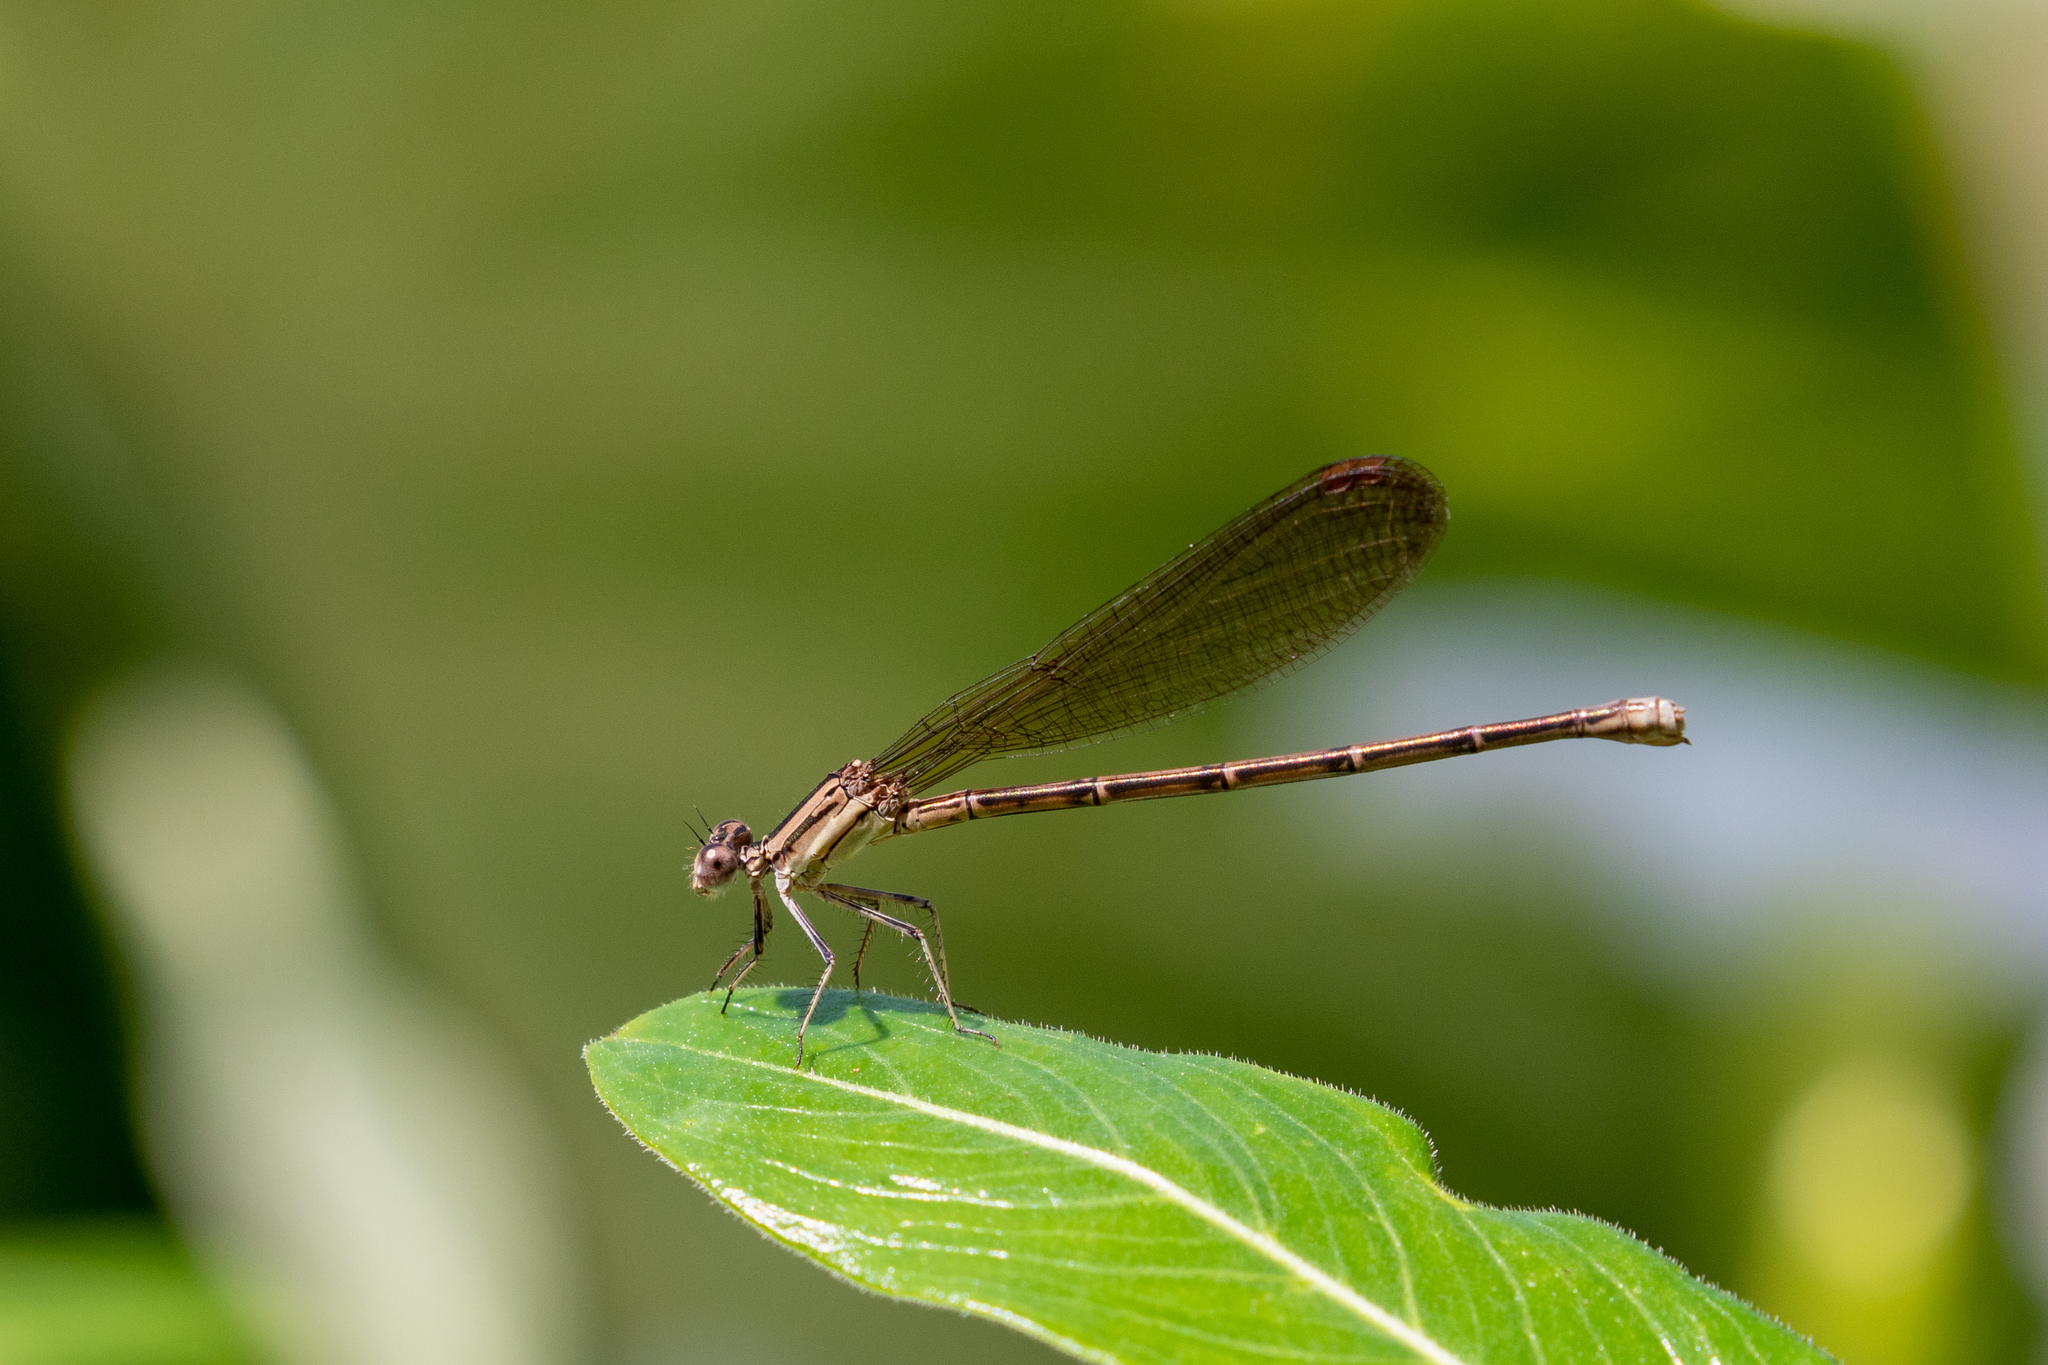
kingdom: Animalia
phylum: Arthropoda
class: Insecta
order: Odonata
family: Coenagrionidae
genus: Argia
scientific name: Argia fumipennis
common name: Variable dancer
